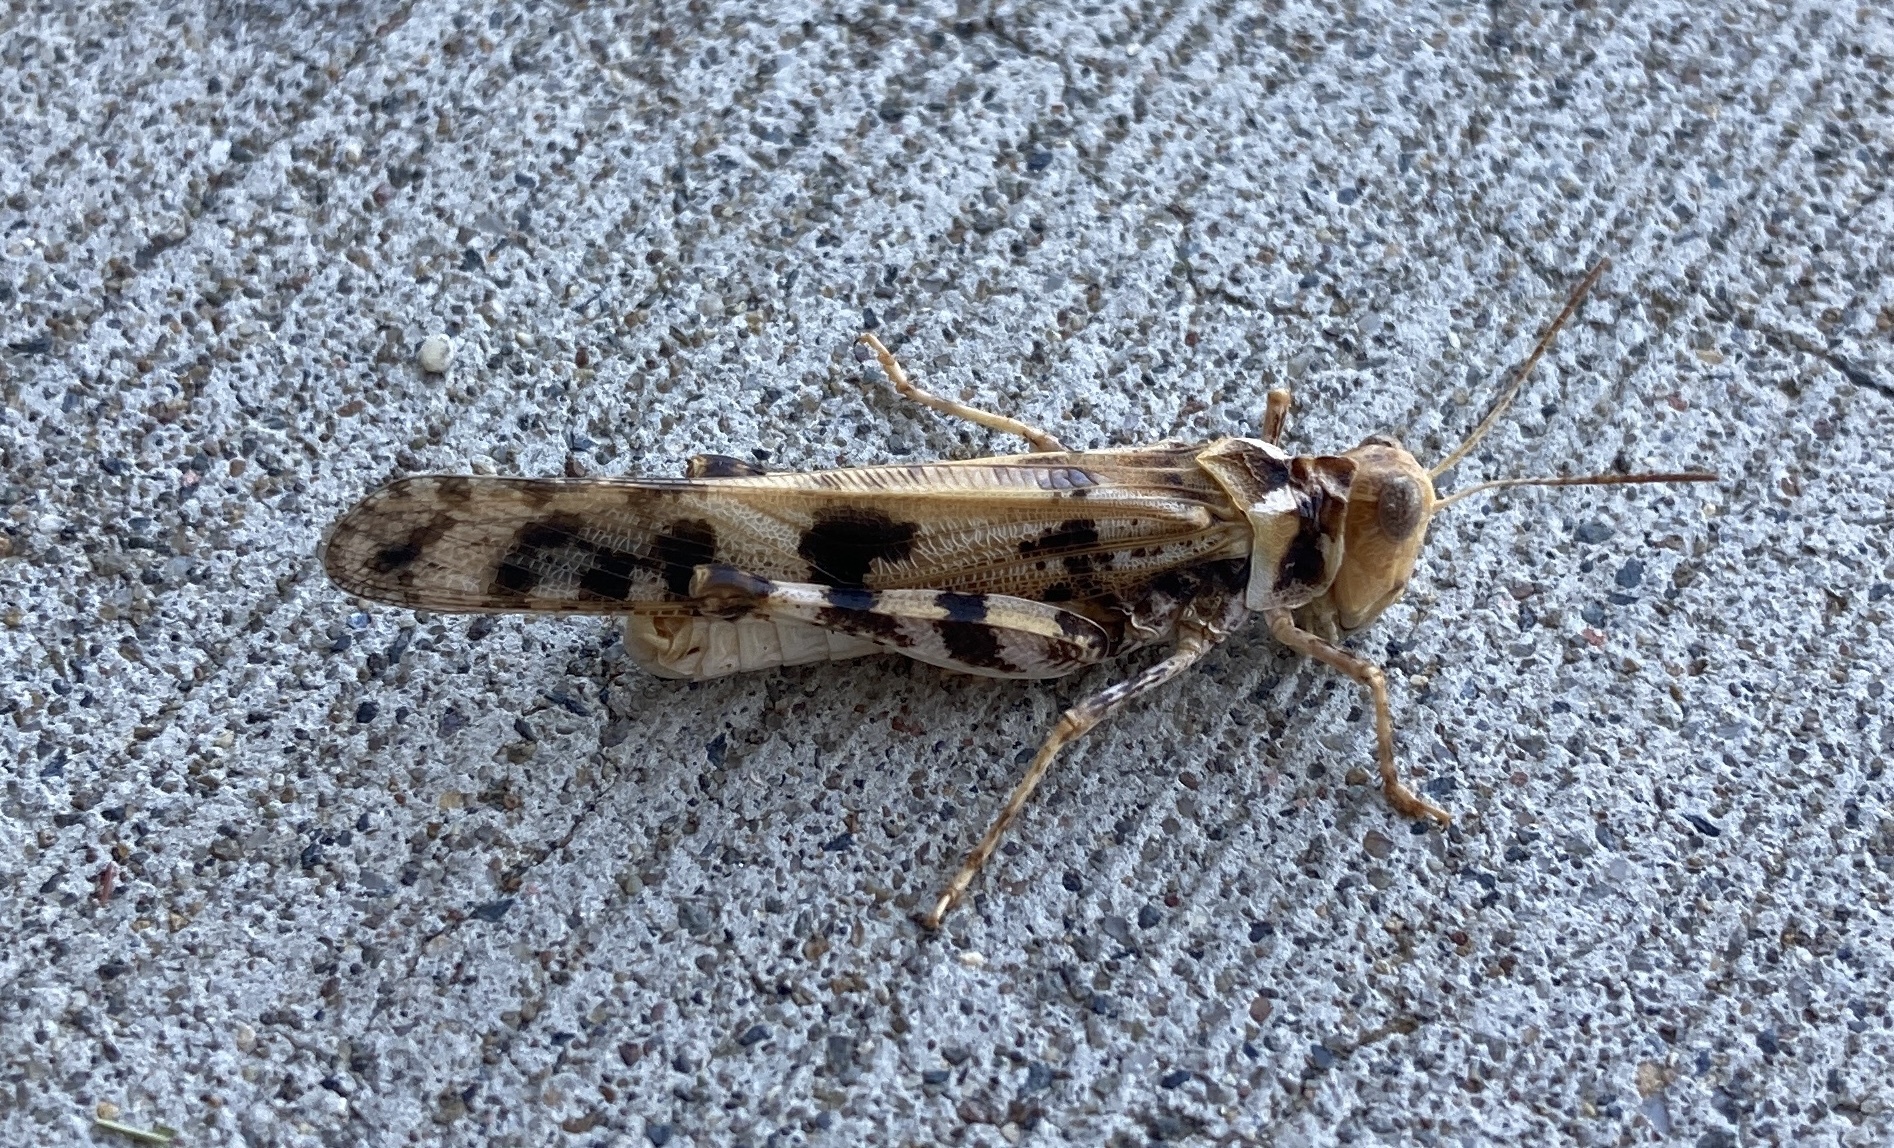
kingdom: Animalia
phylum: Arthropoda
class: Insecta
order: Orthoptera
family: Acrididae
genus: Dissosteira
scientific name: Dissosteira spurcata
